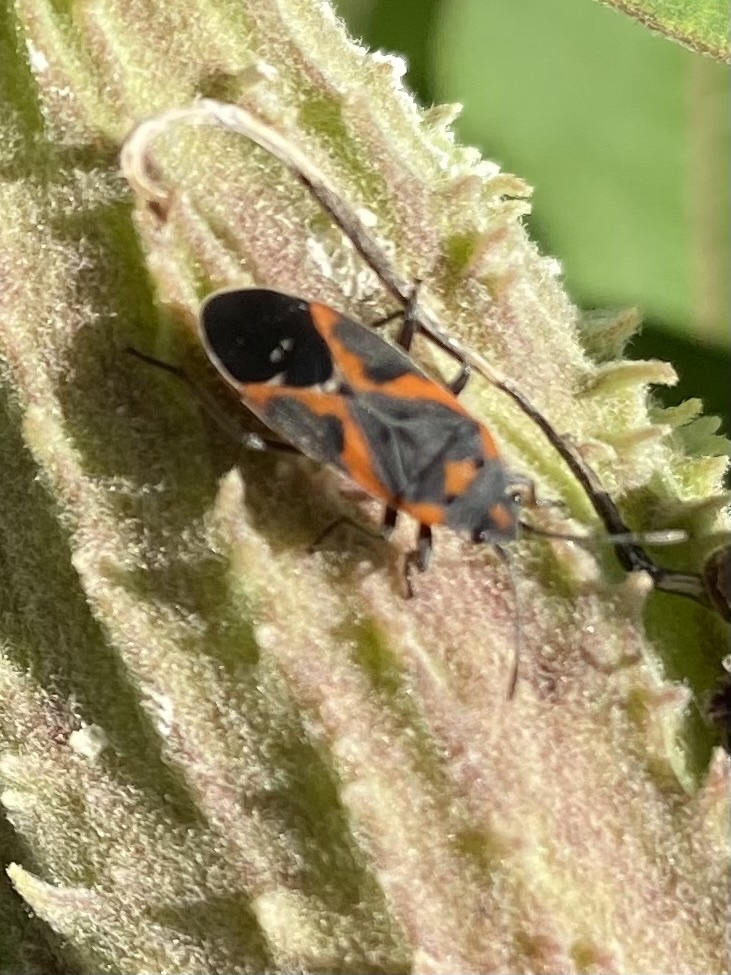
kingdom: Animalia
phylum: Arthropoda
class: Insecta
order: Hemiptera
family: Lygaeidae
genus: Lygaeus
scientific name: Lygaeus kalmii
